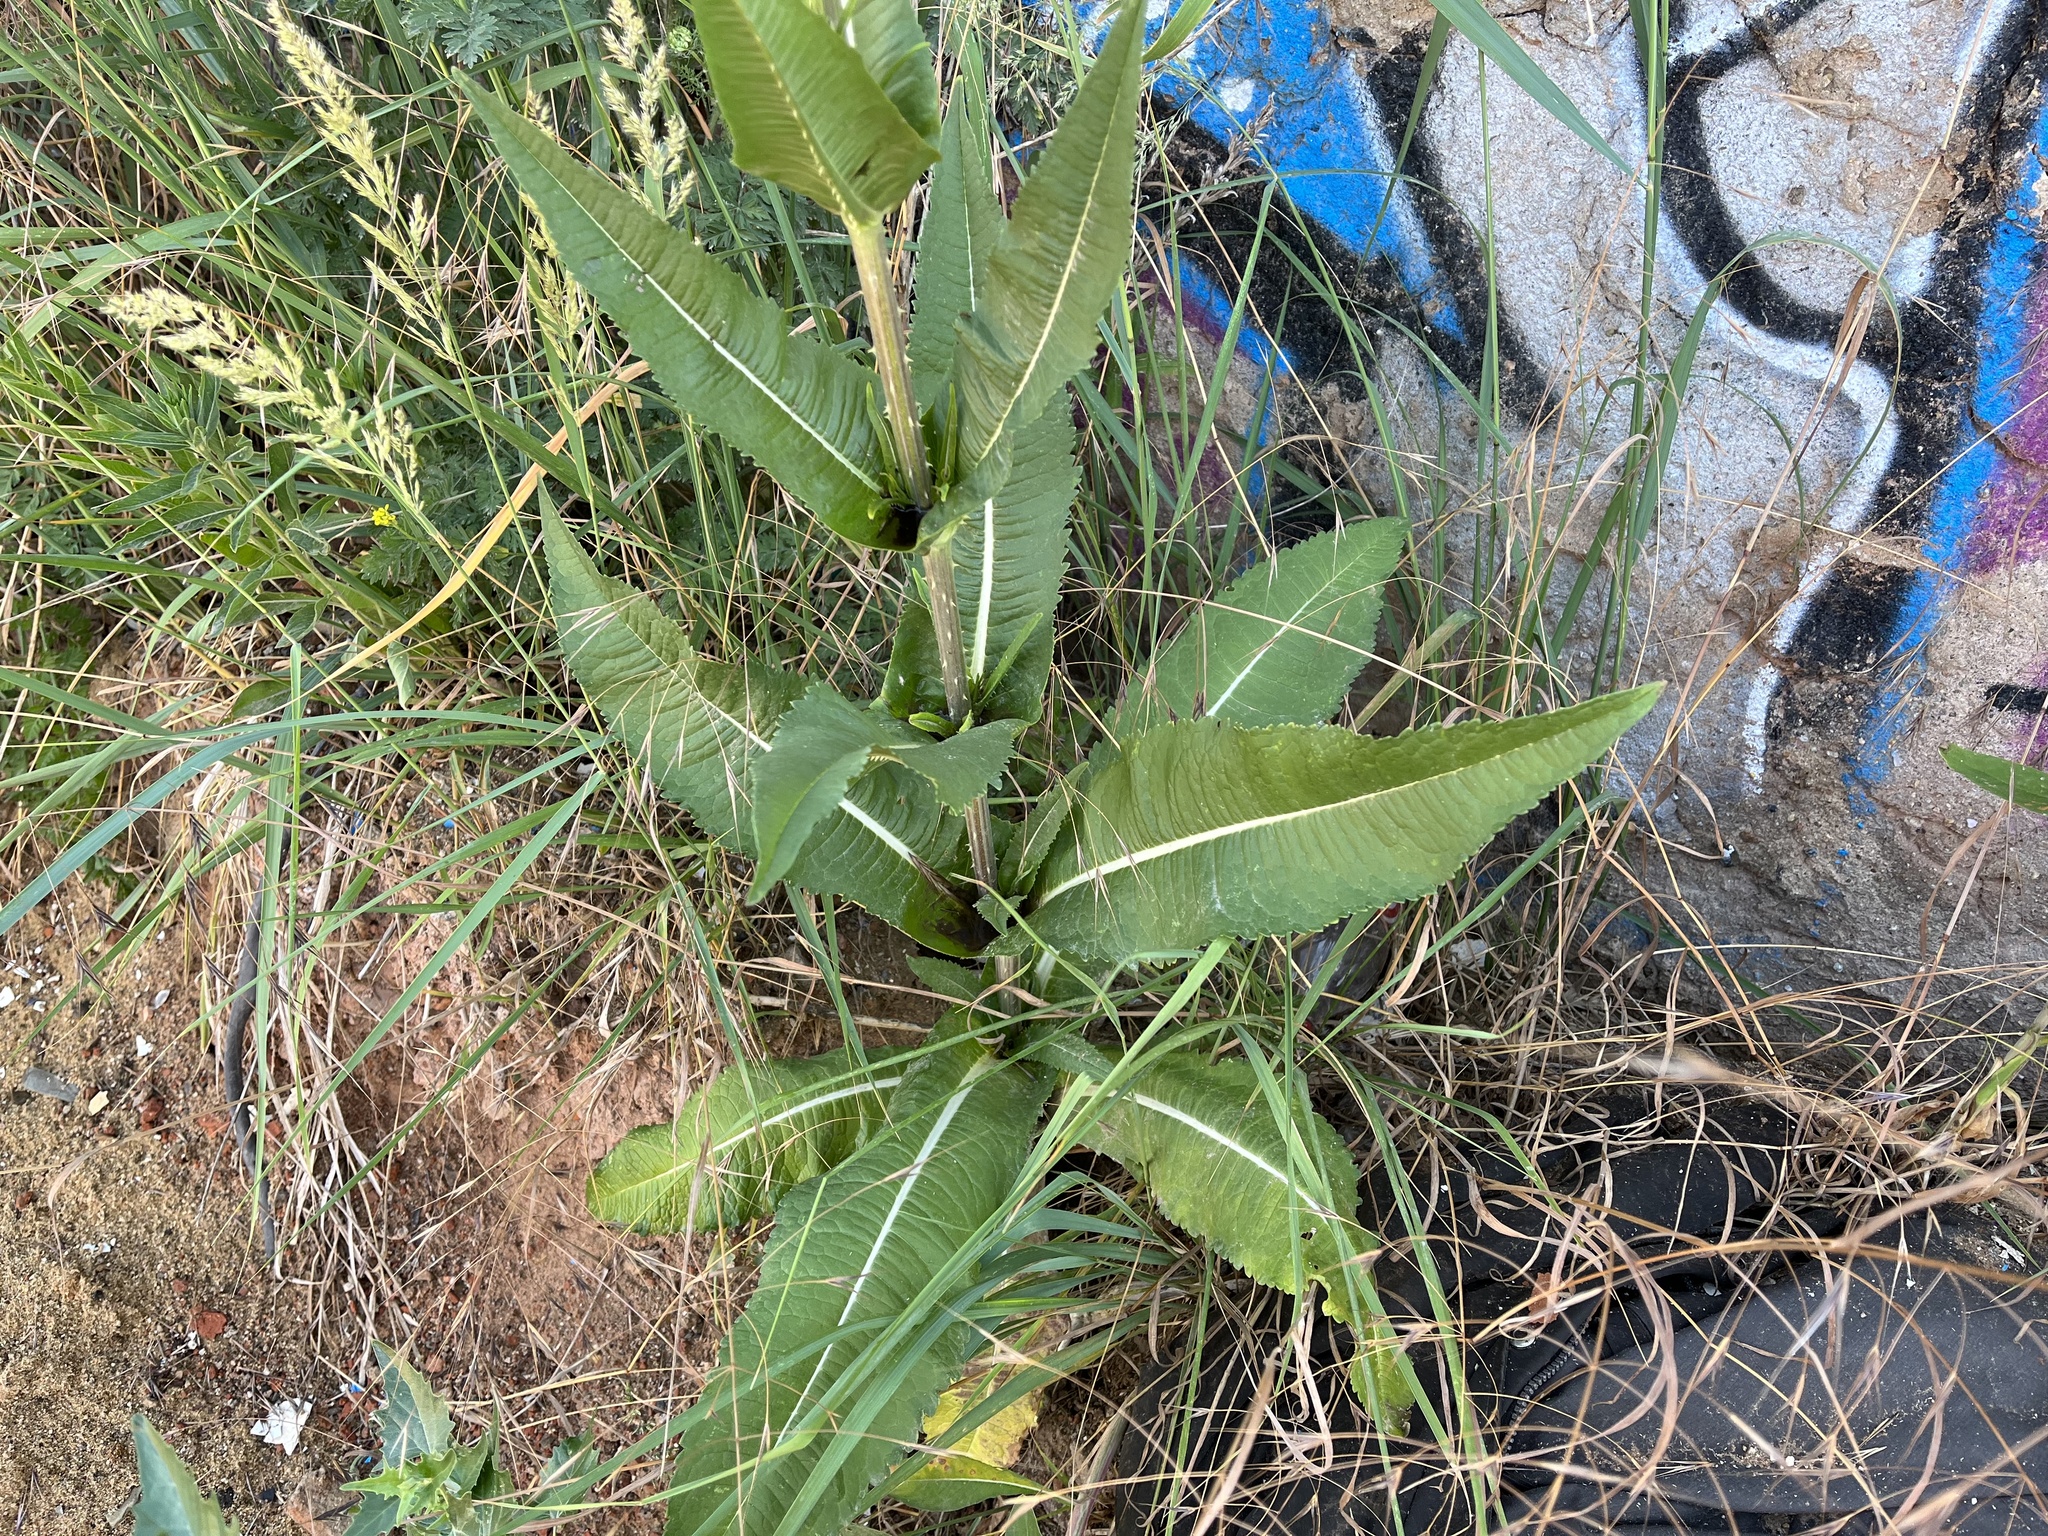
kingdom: Plantae
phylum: Tracheophyta
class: Magnoliopsida
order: Dipsacales
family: Caprifoliaceae
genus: Dipsacus
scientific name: Dipsacus fullonum
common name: Teasel
